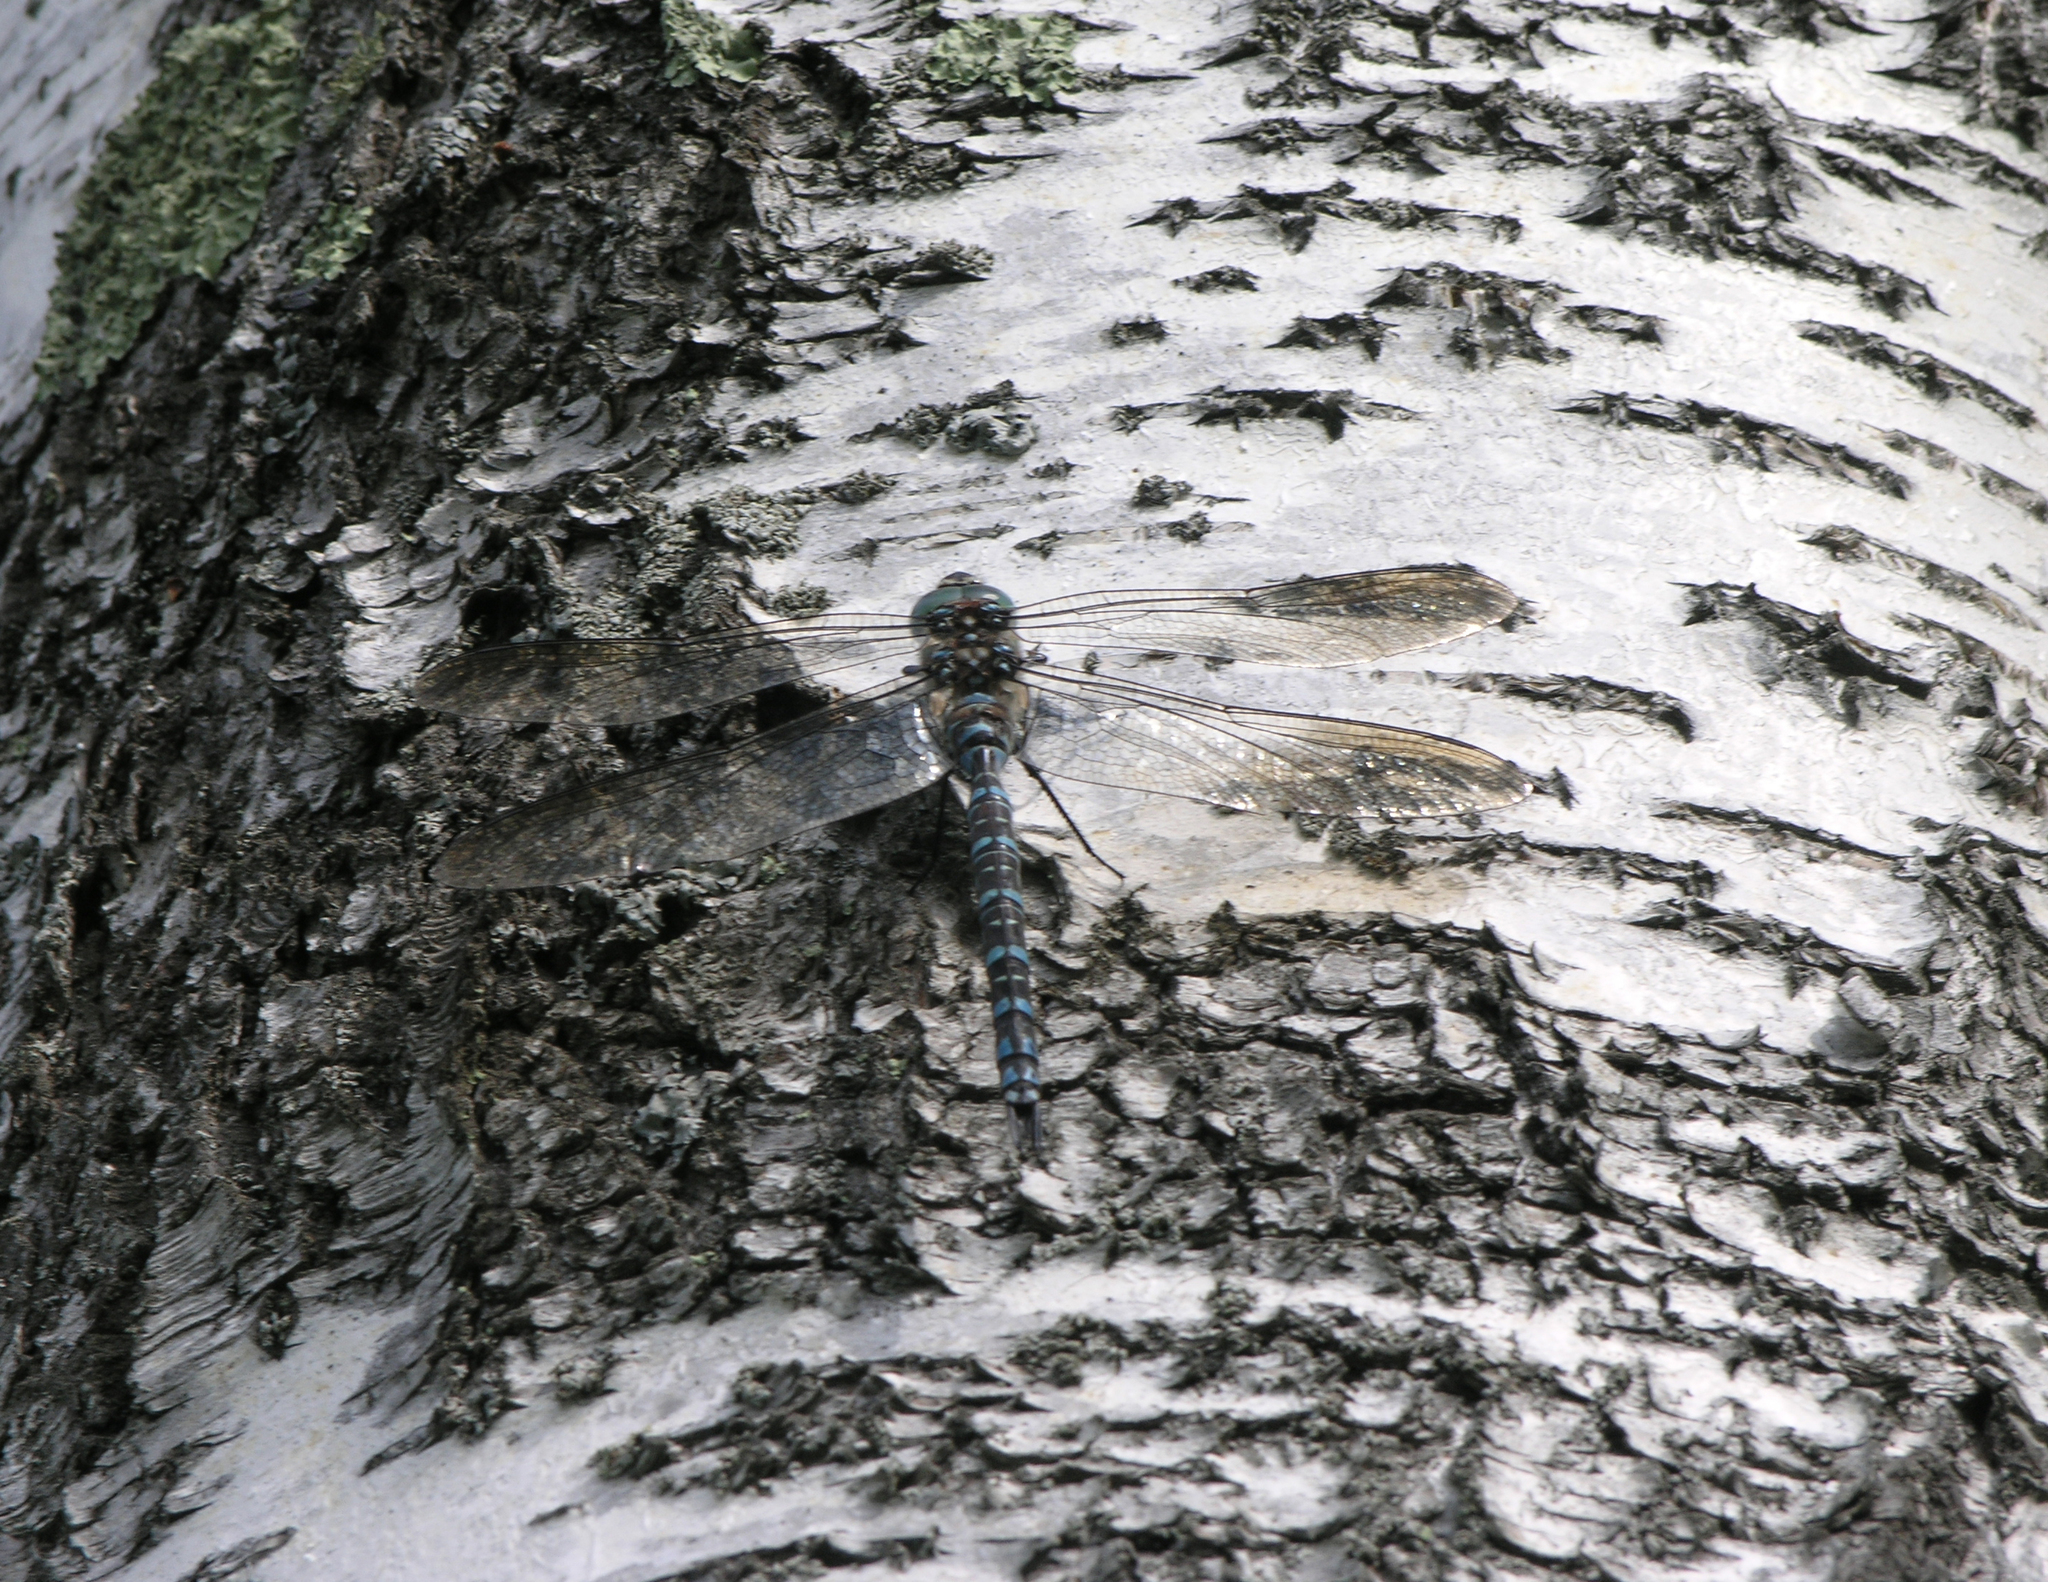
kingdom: Animalia
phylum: Arthropoda
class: Insecta
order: Odonata
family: Aeshnidae
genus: Aeshna
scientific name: Aeshna crenata
